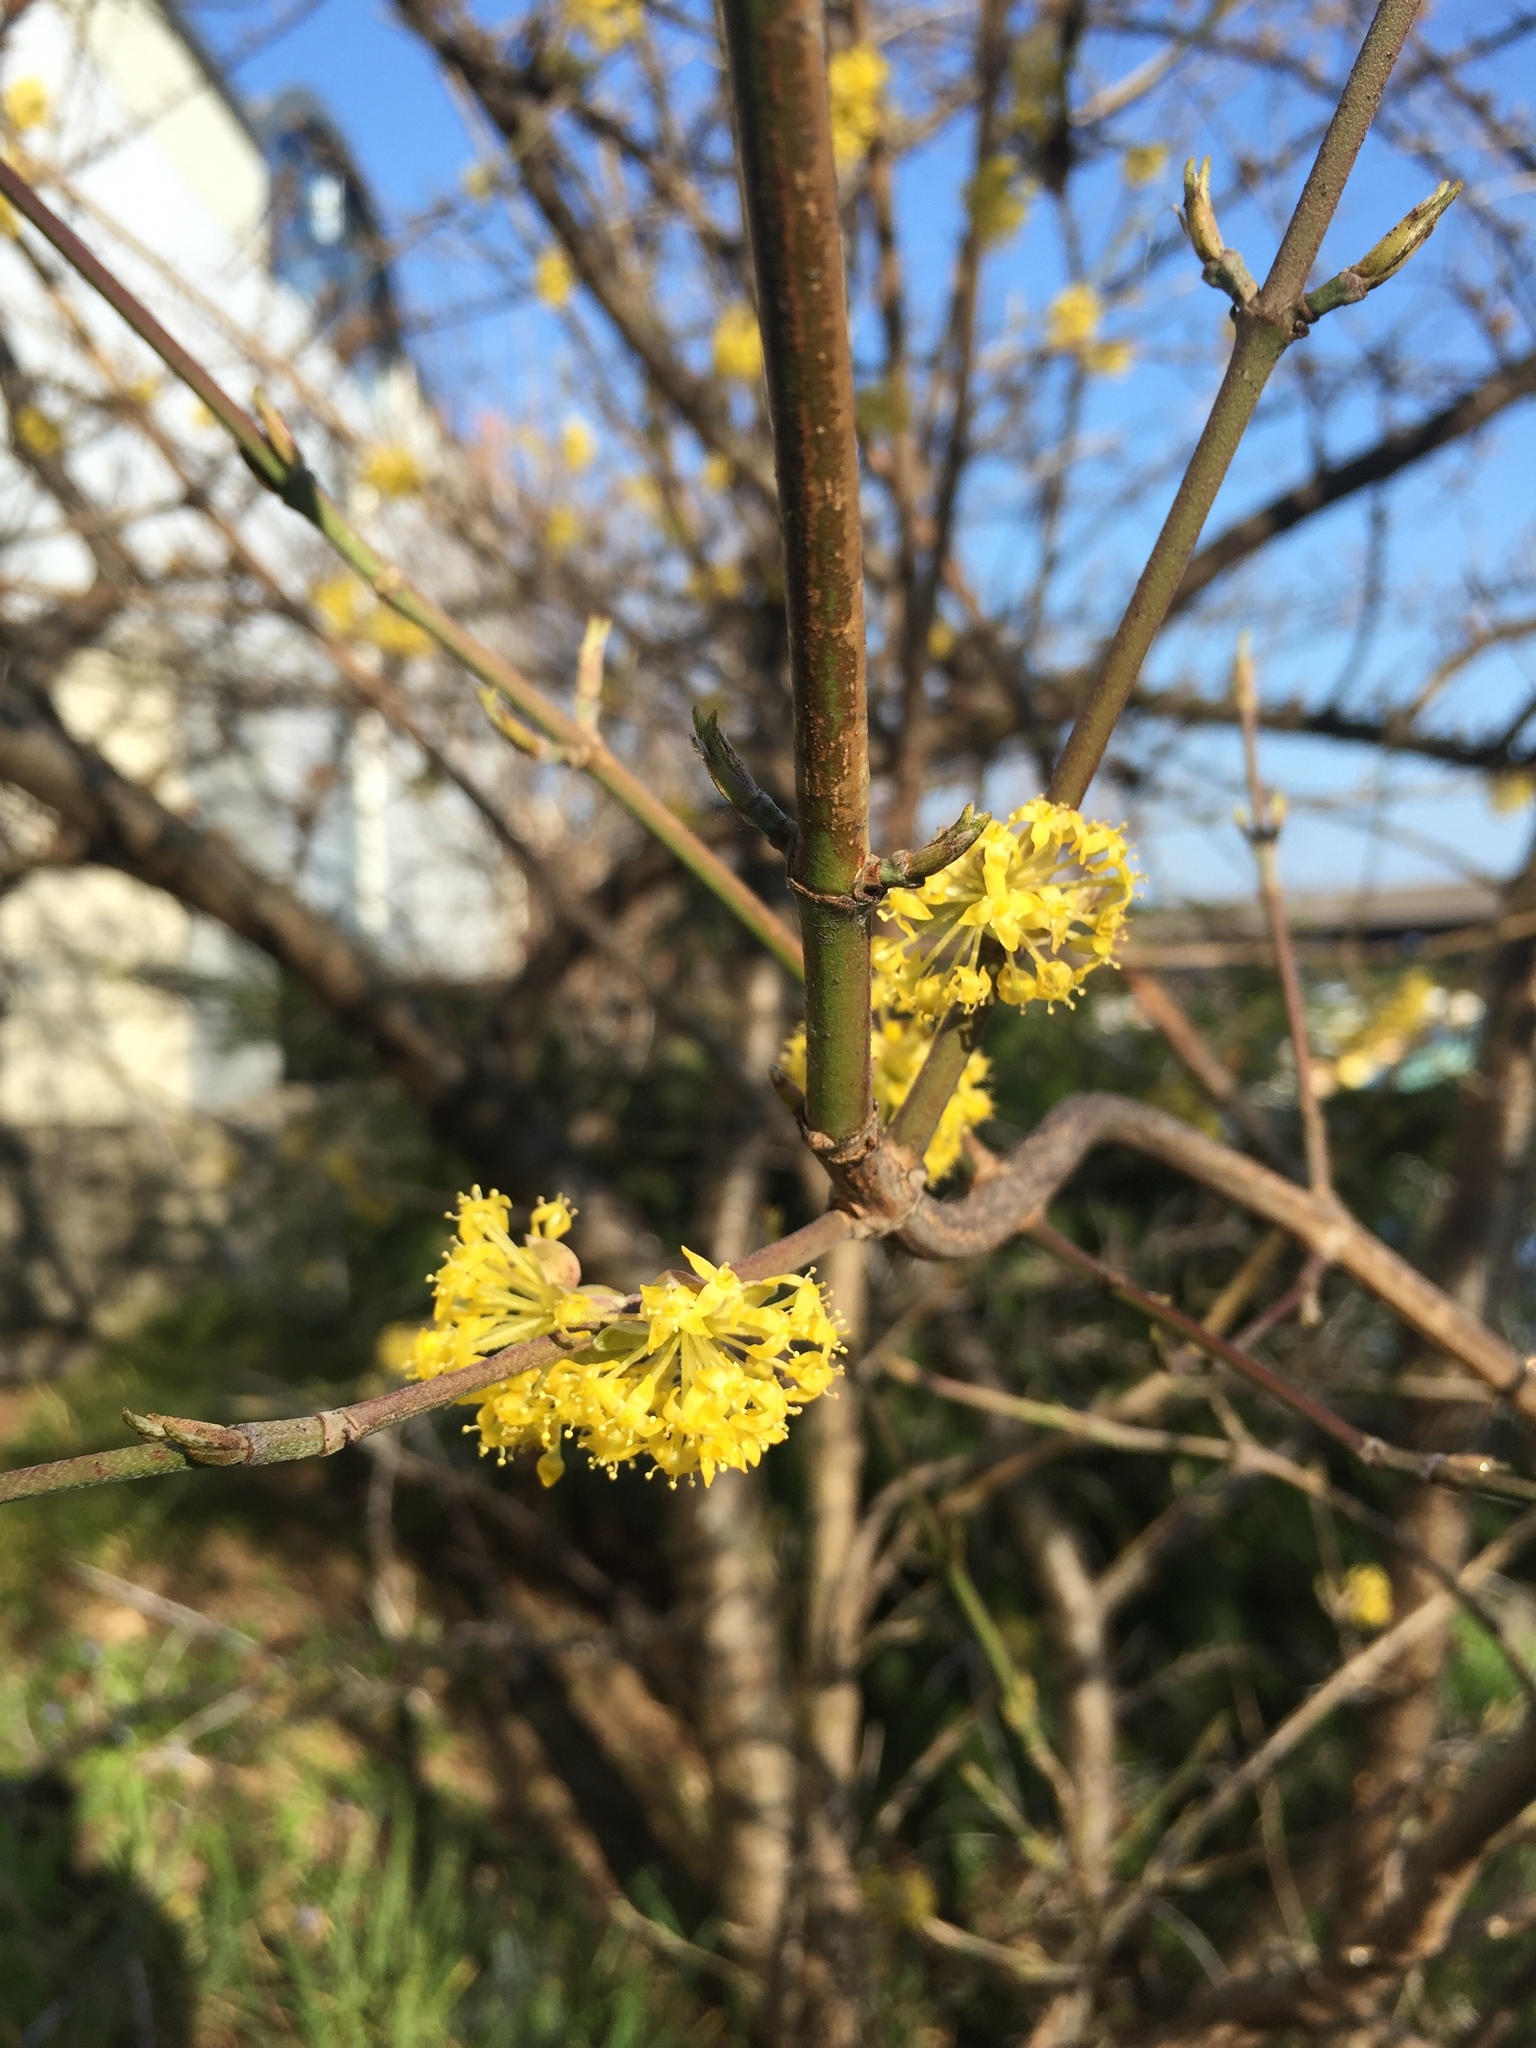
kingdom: Plantae
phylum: Tracheophyta
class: Magnoliopsida
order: Cornales
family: Cornaceae
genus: Cornus
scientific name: Cornus mas
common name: Cornelian-cherry
